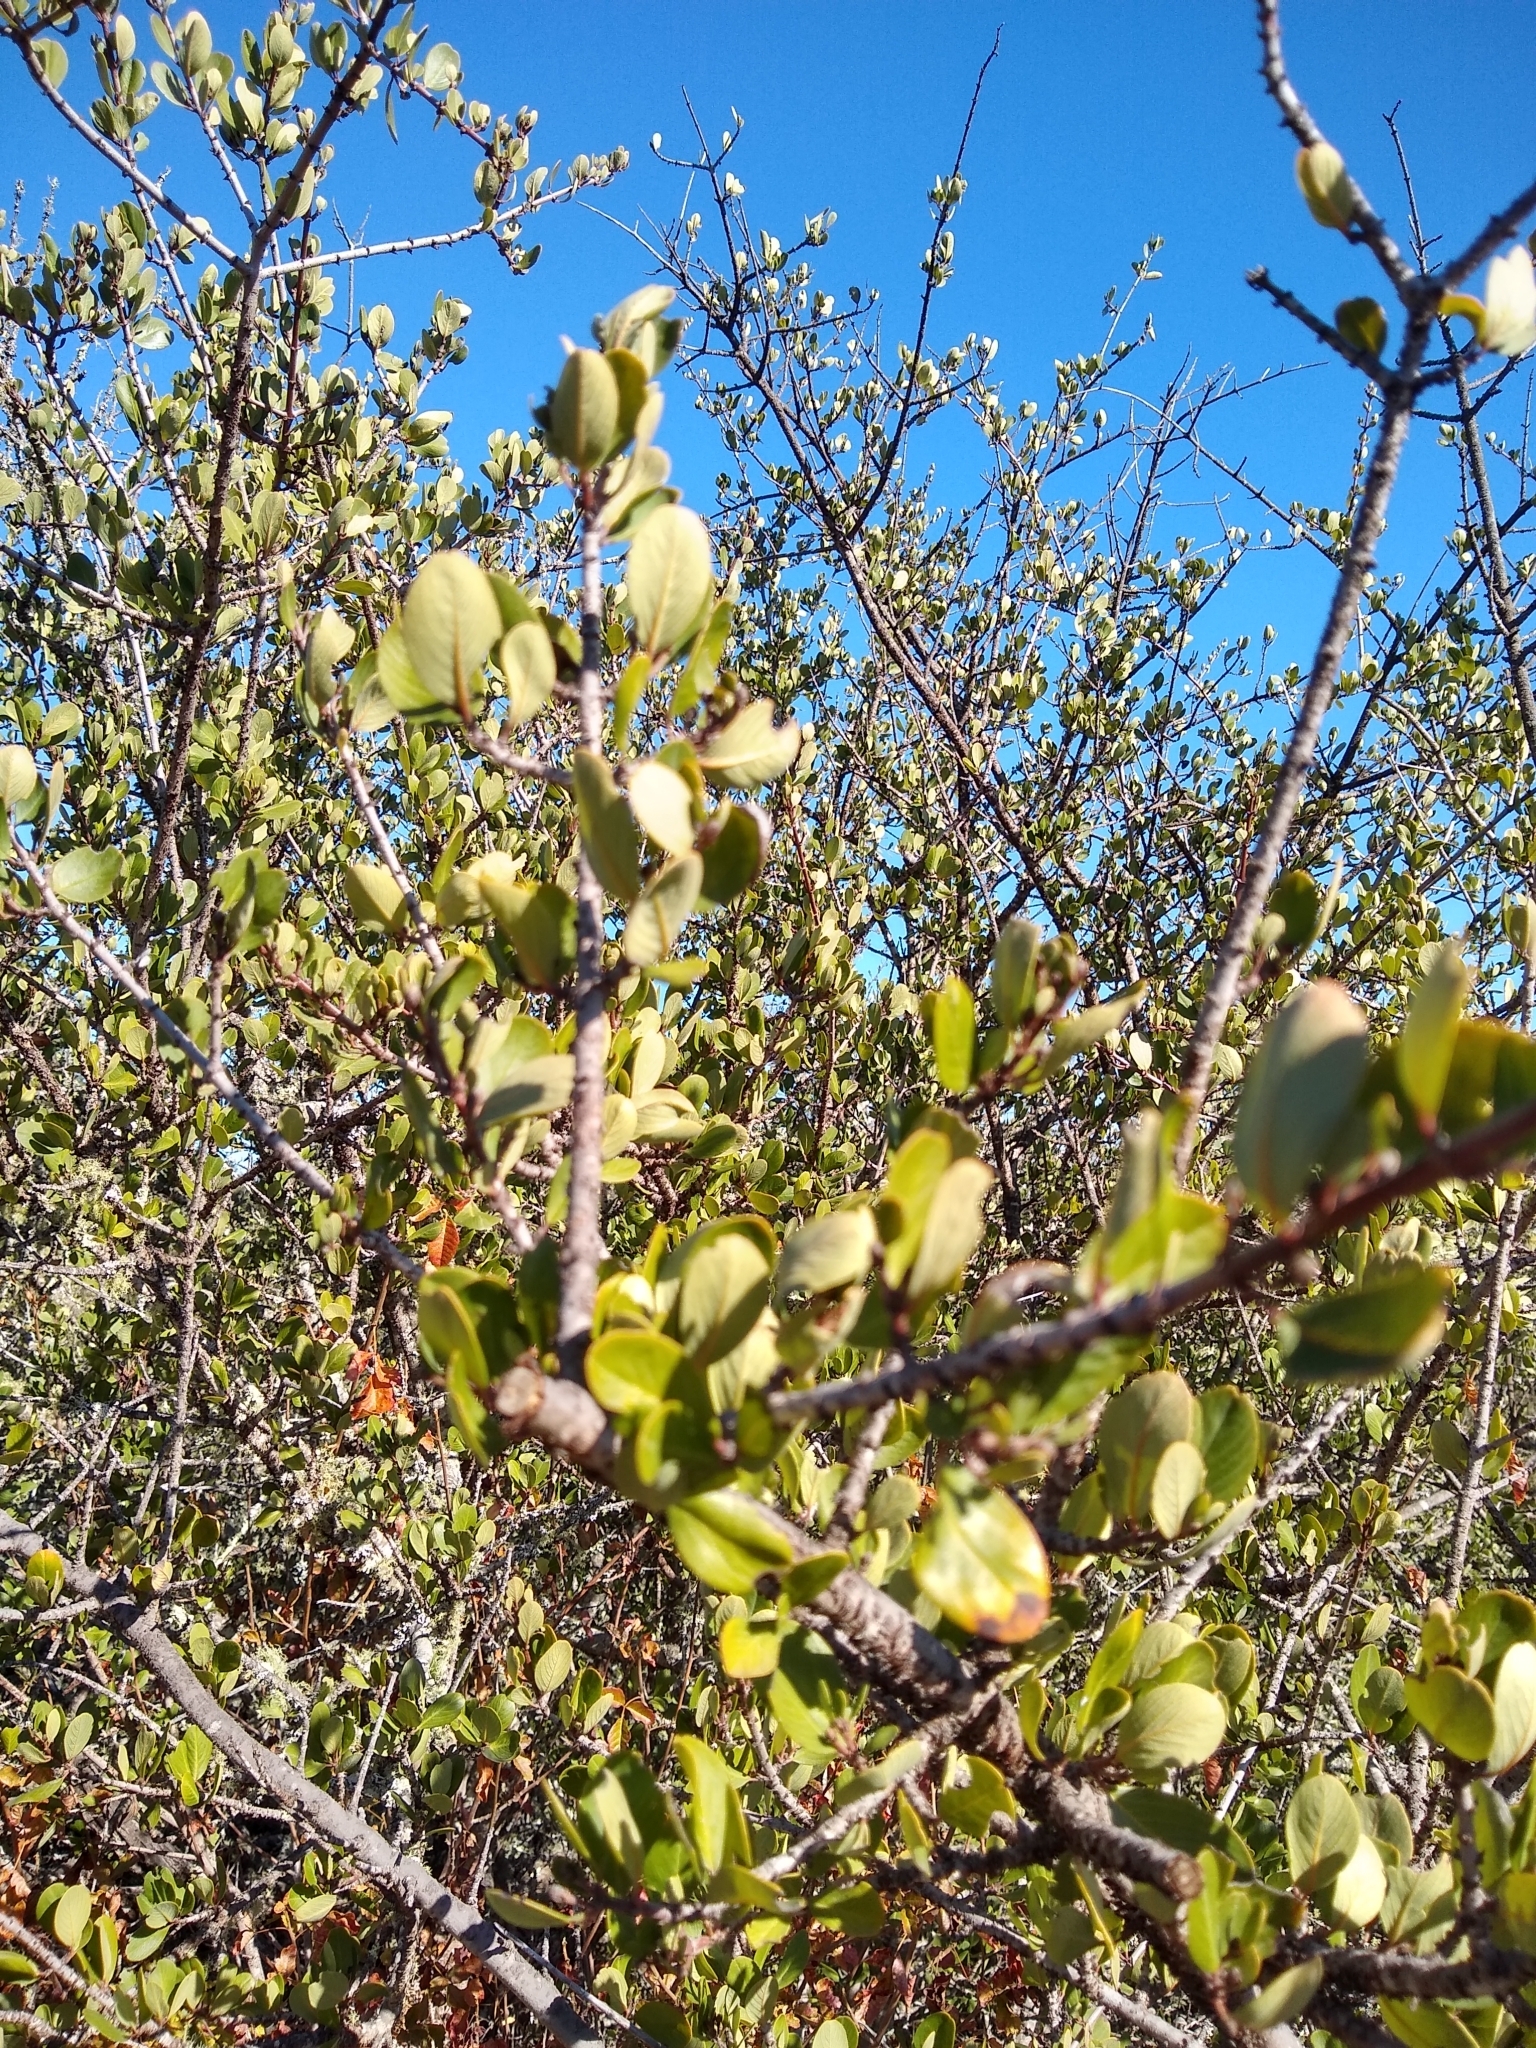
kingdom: Plantae
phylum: Tracheophyta
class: Magnoliopsida
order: Rosales
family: Rhamnaceae
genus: Ceanothus
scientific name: Ceanothus cuneatus
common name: Cuneate ceanothus
